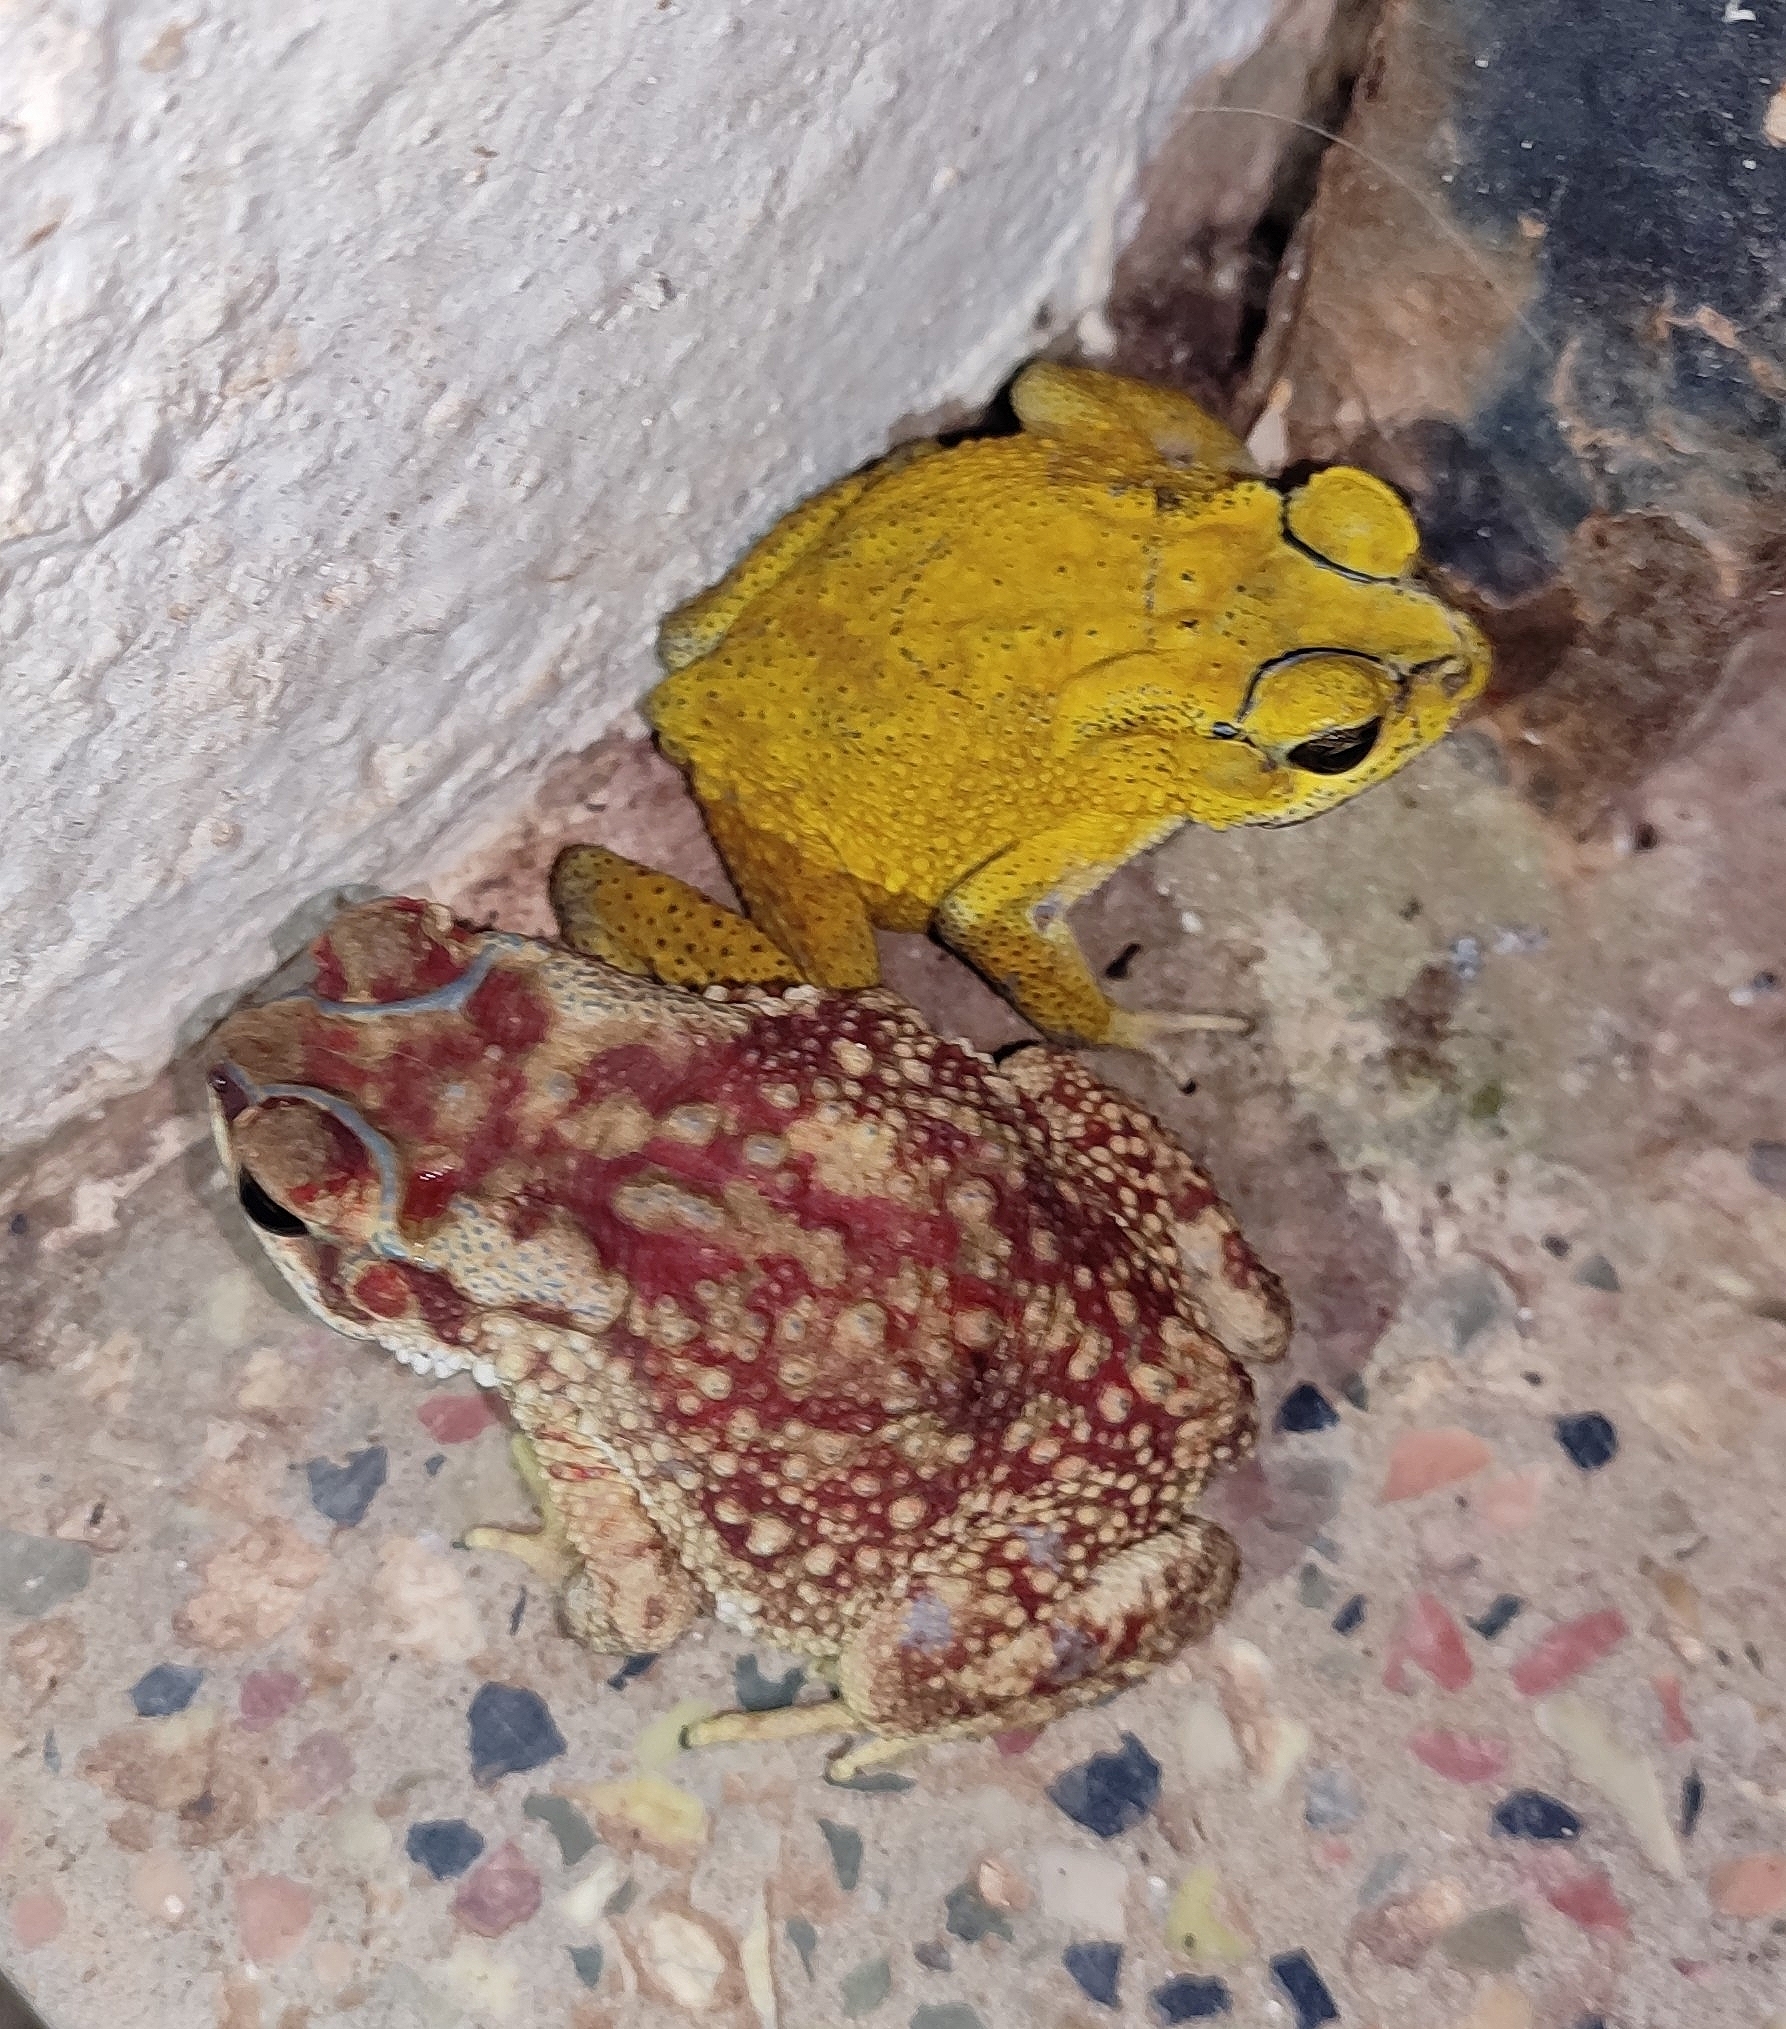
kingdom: Animalia
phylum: Chordata
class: Amphibia
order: Anura
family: Bufonidae
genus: Duttaphrynus
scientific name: Duttaphrynus melanostictus
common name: Common sunda toad
